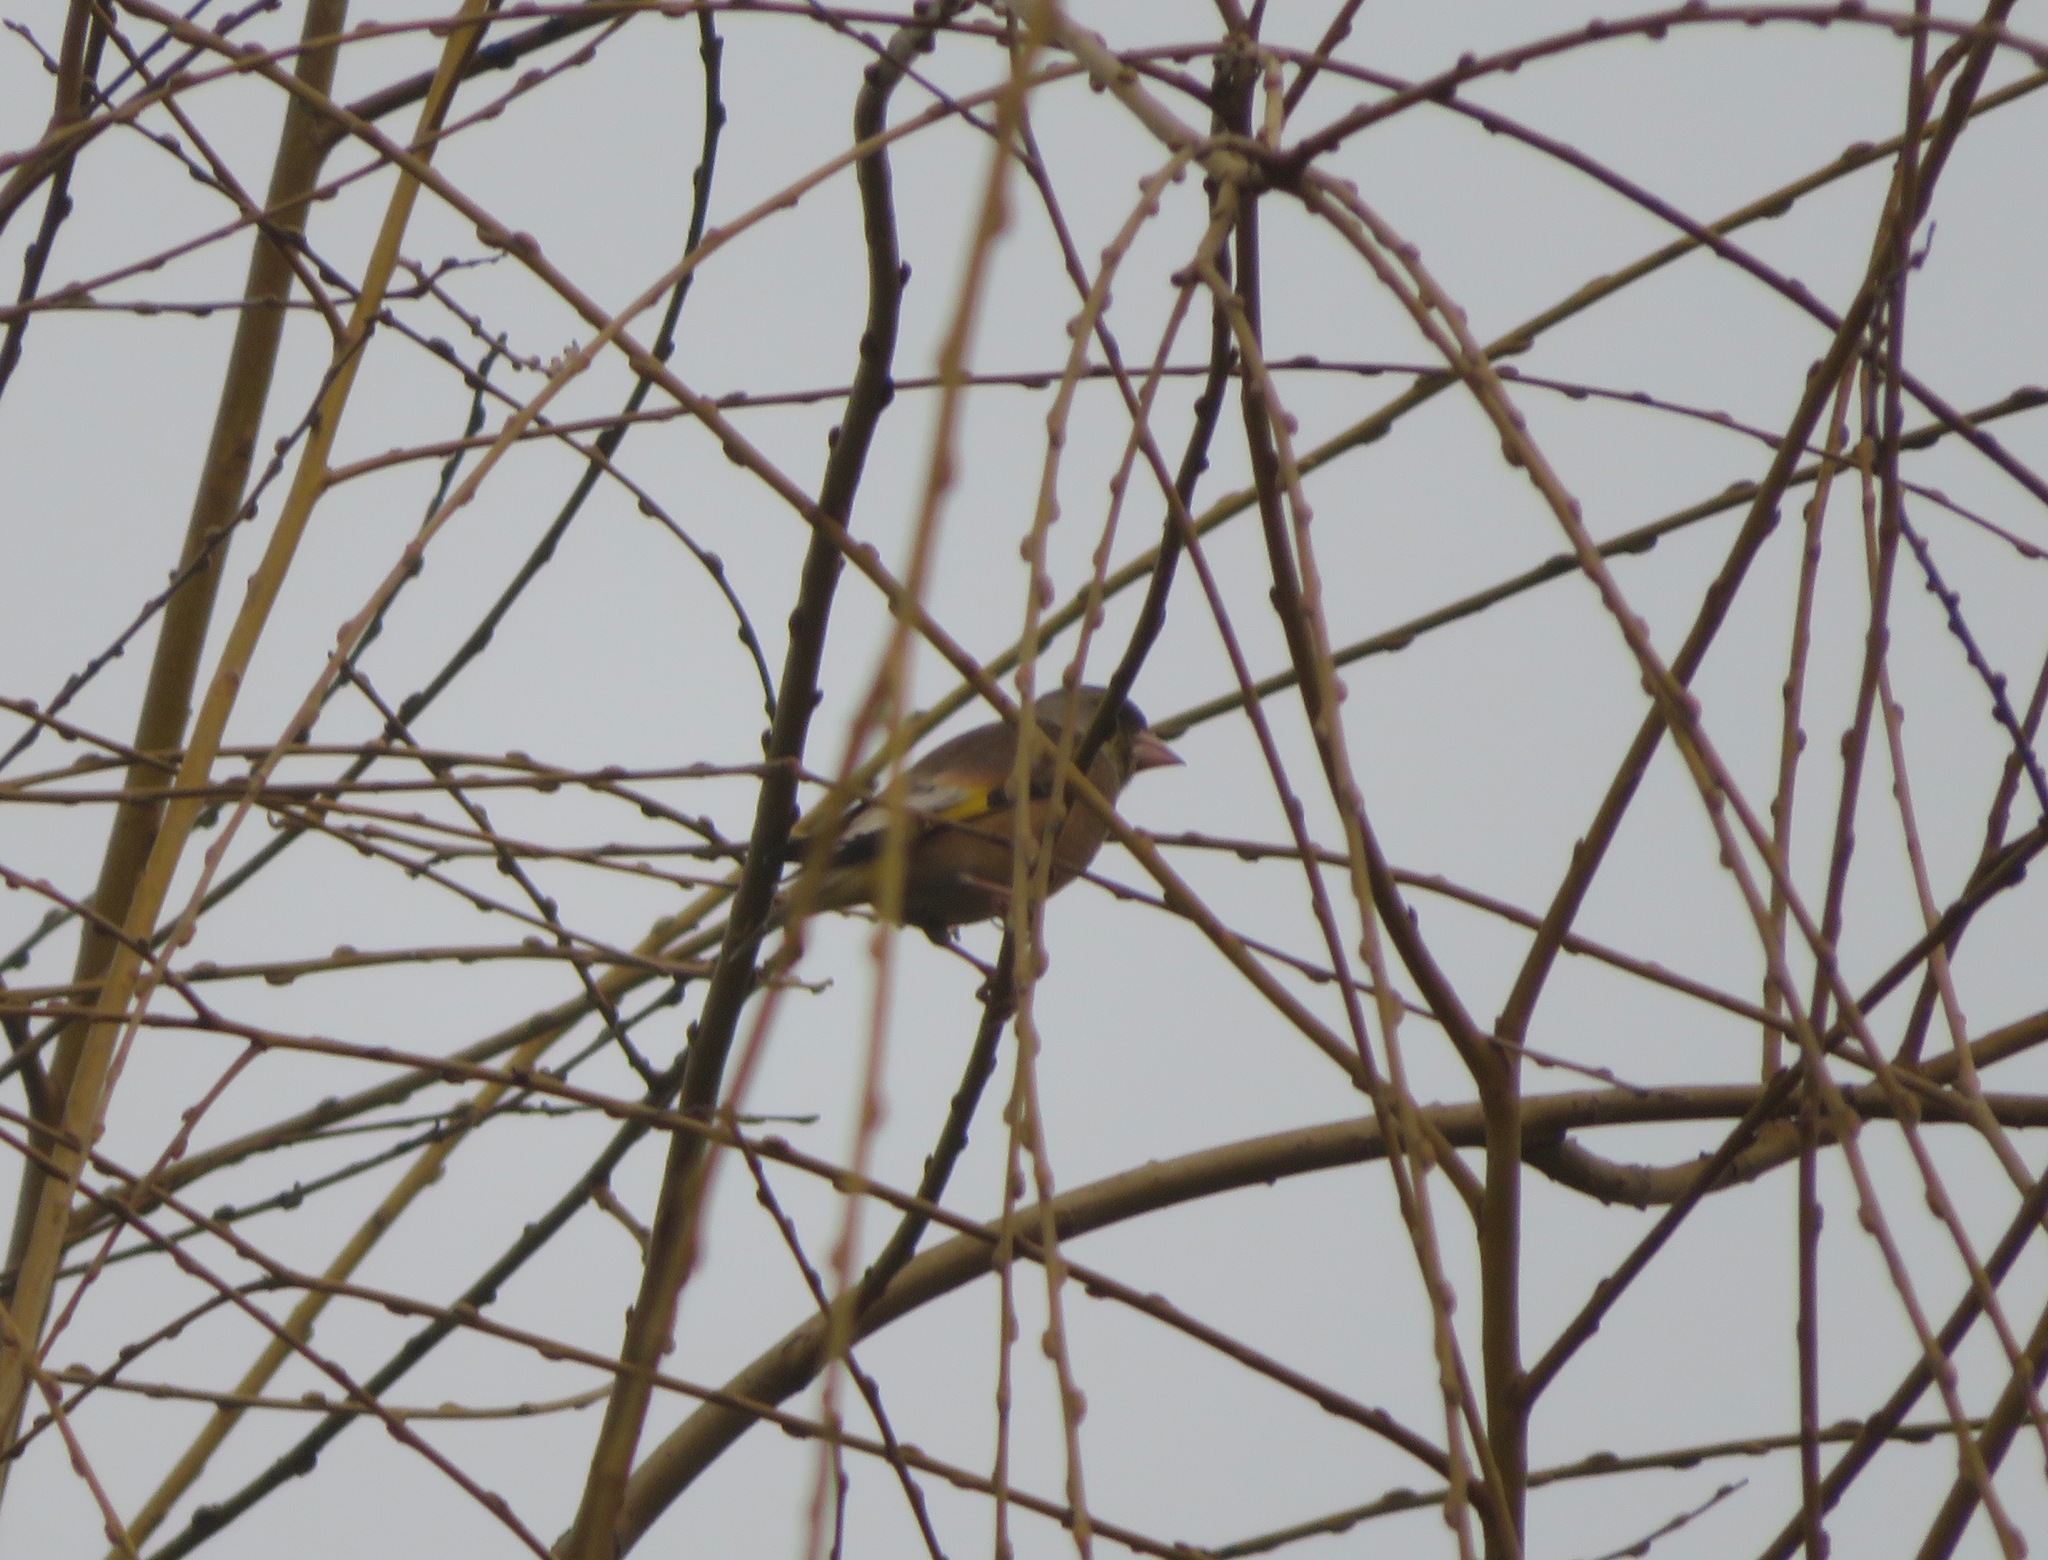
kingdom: Plantae
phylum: Tracheophyta
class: Liliopsida
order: Poales
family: Poaceae
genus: Chloris
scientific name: Chloris sinica
